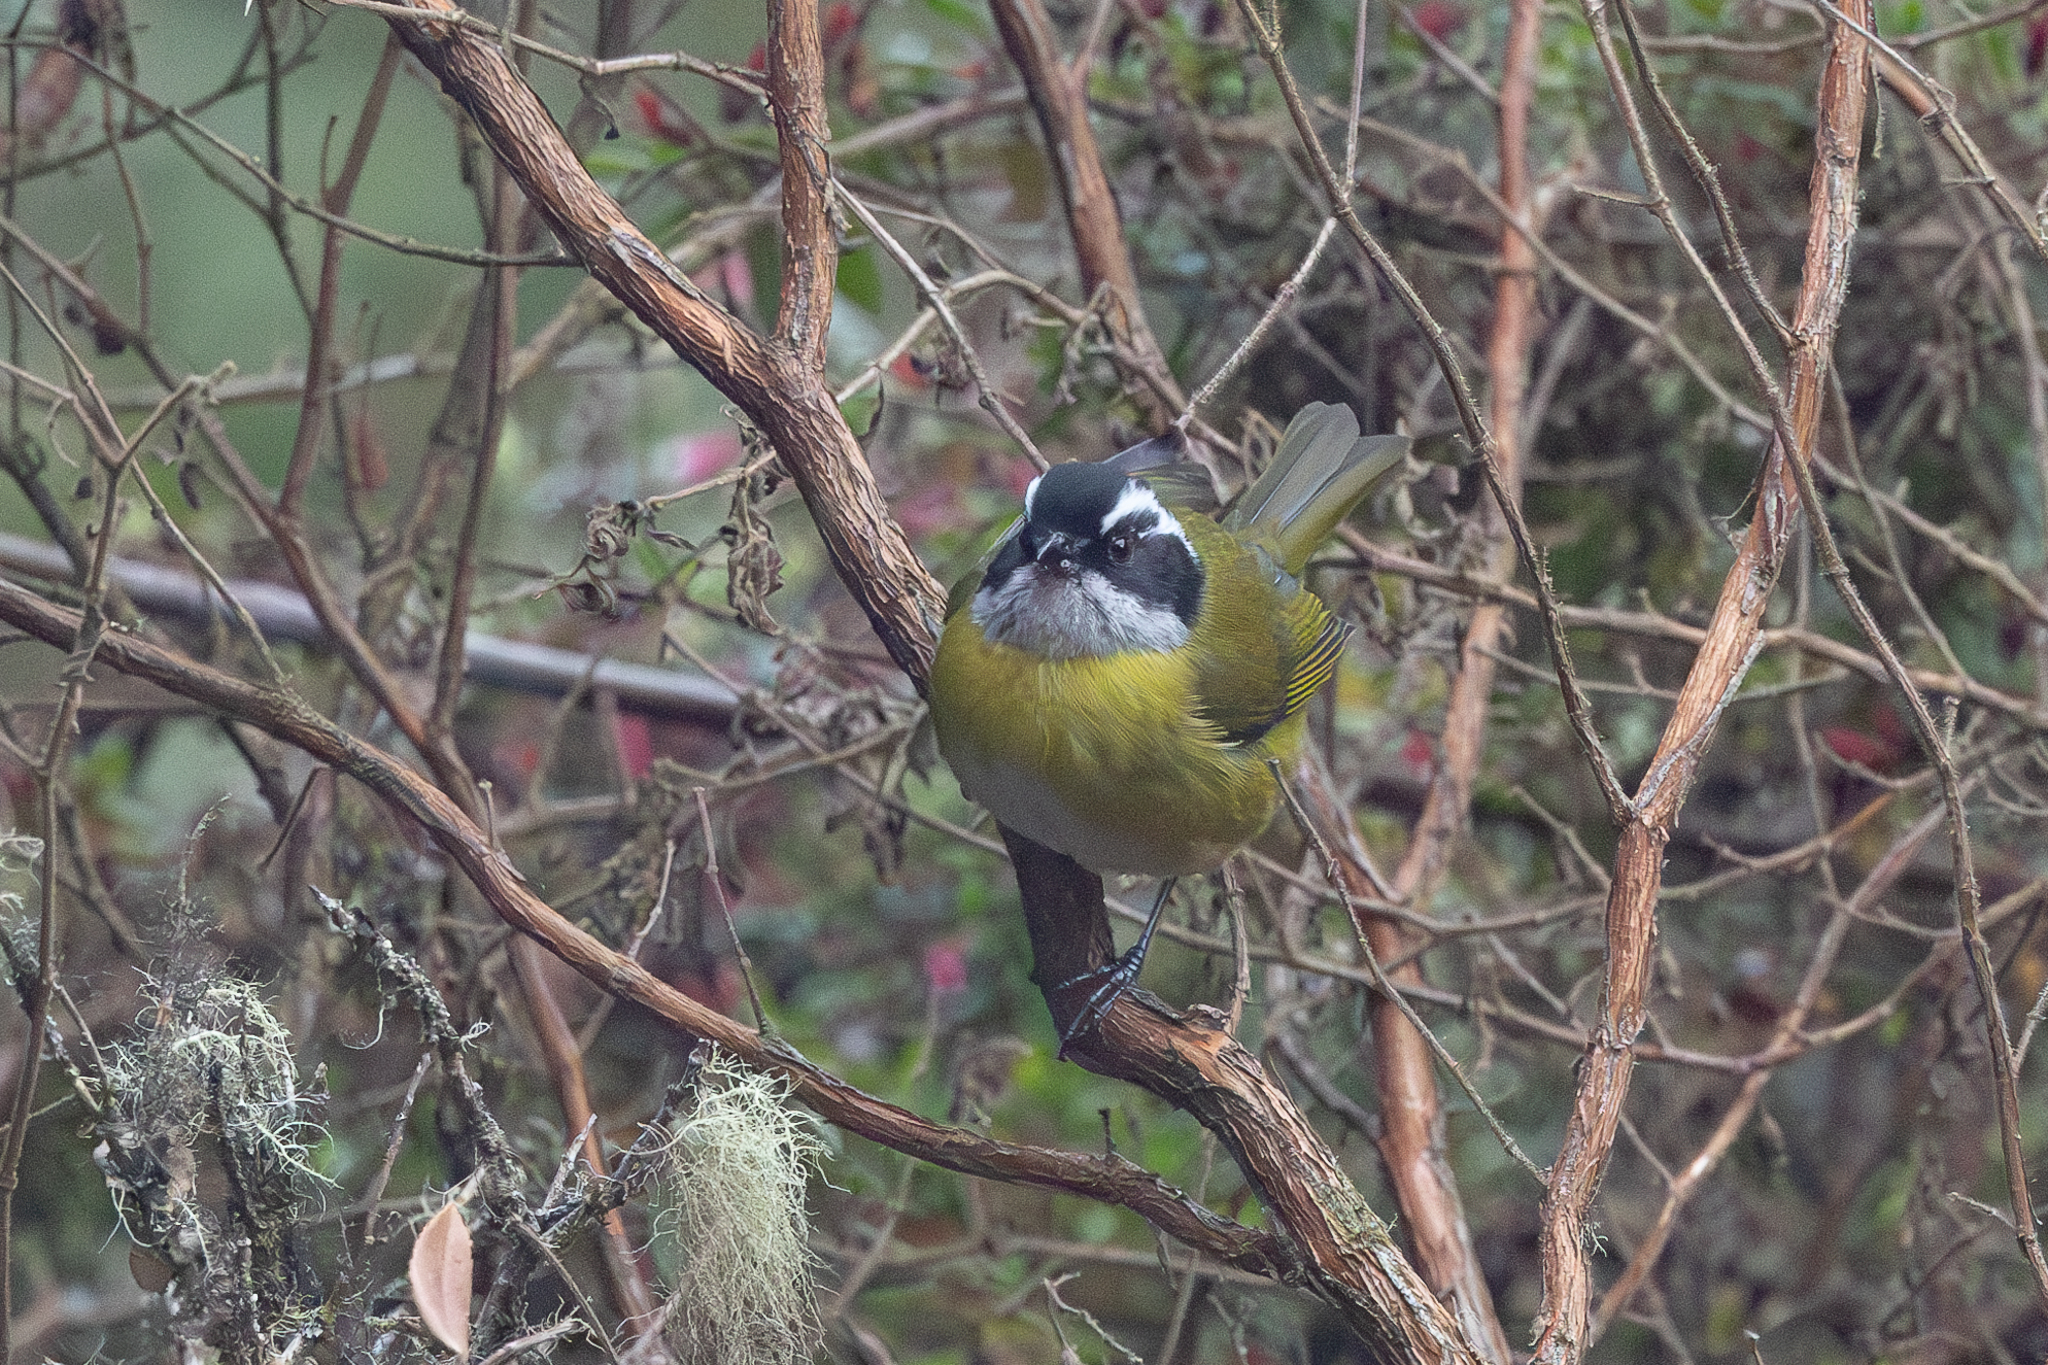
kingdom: Animalia
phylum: Chordata
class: Aves
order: Passeriformes
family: Passerellidae
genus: Chlorospingus
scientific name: Chlorospingus pileatus
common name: Sooty-capped bush-tanager
